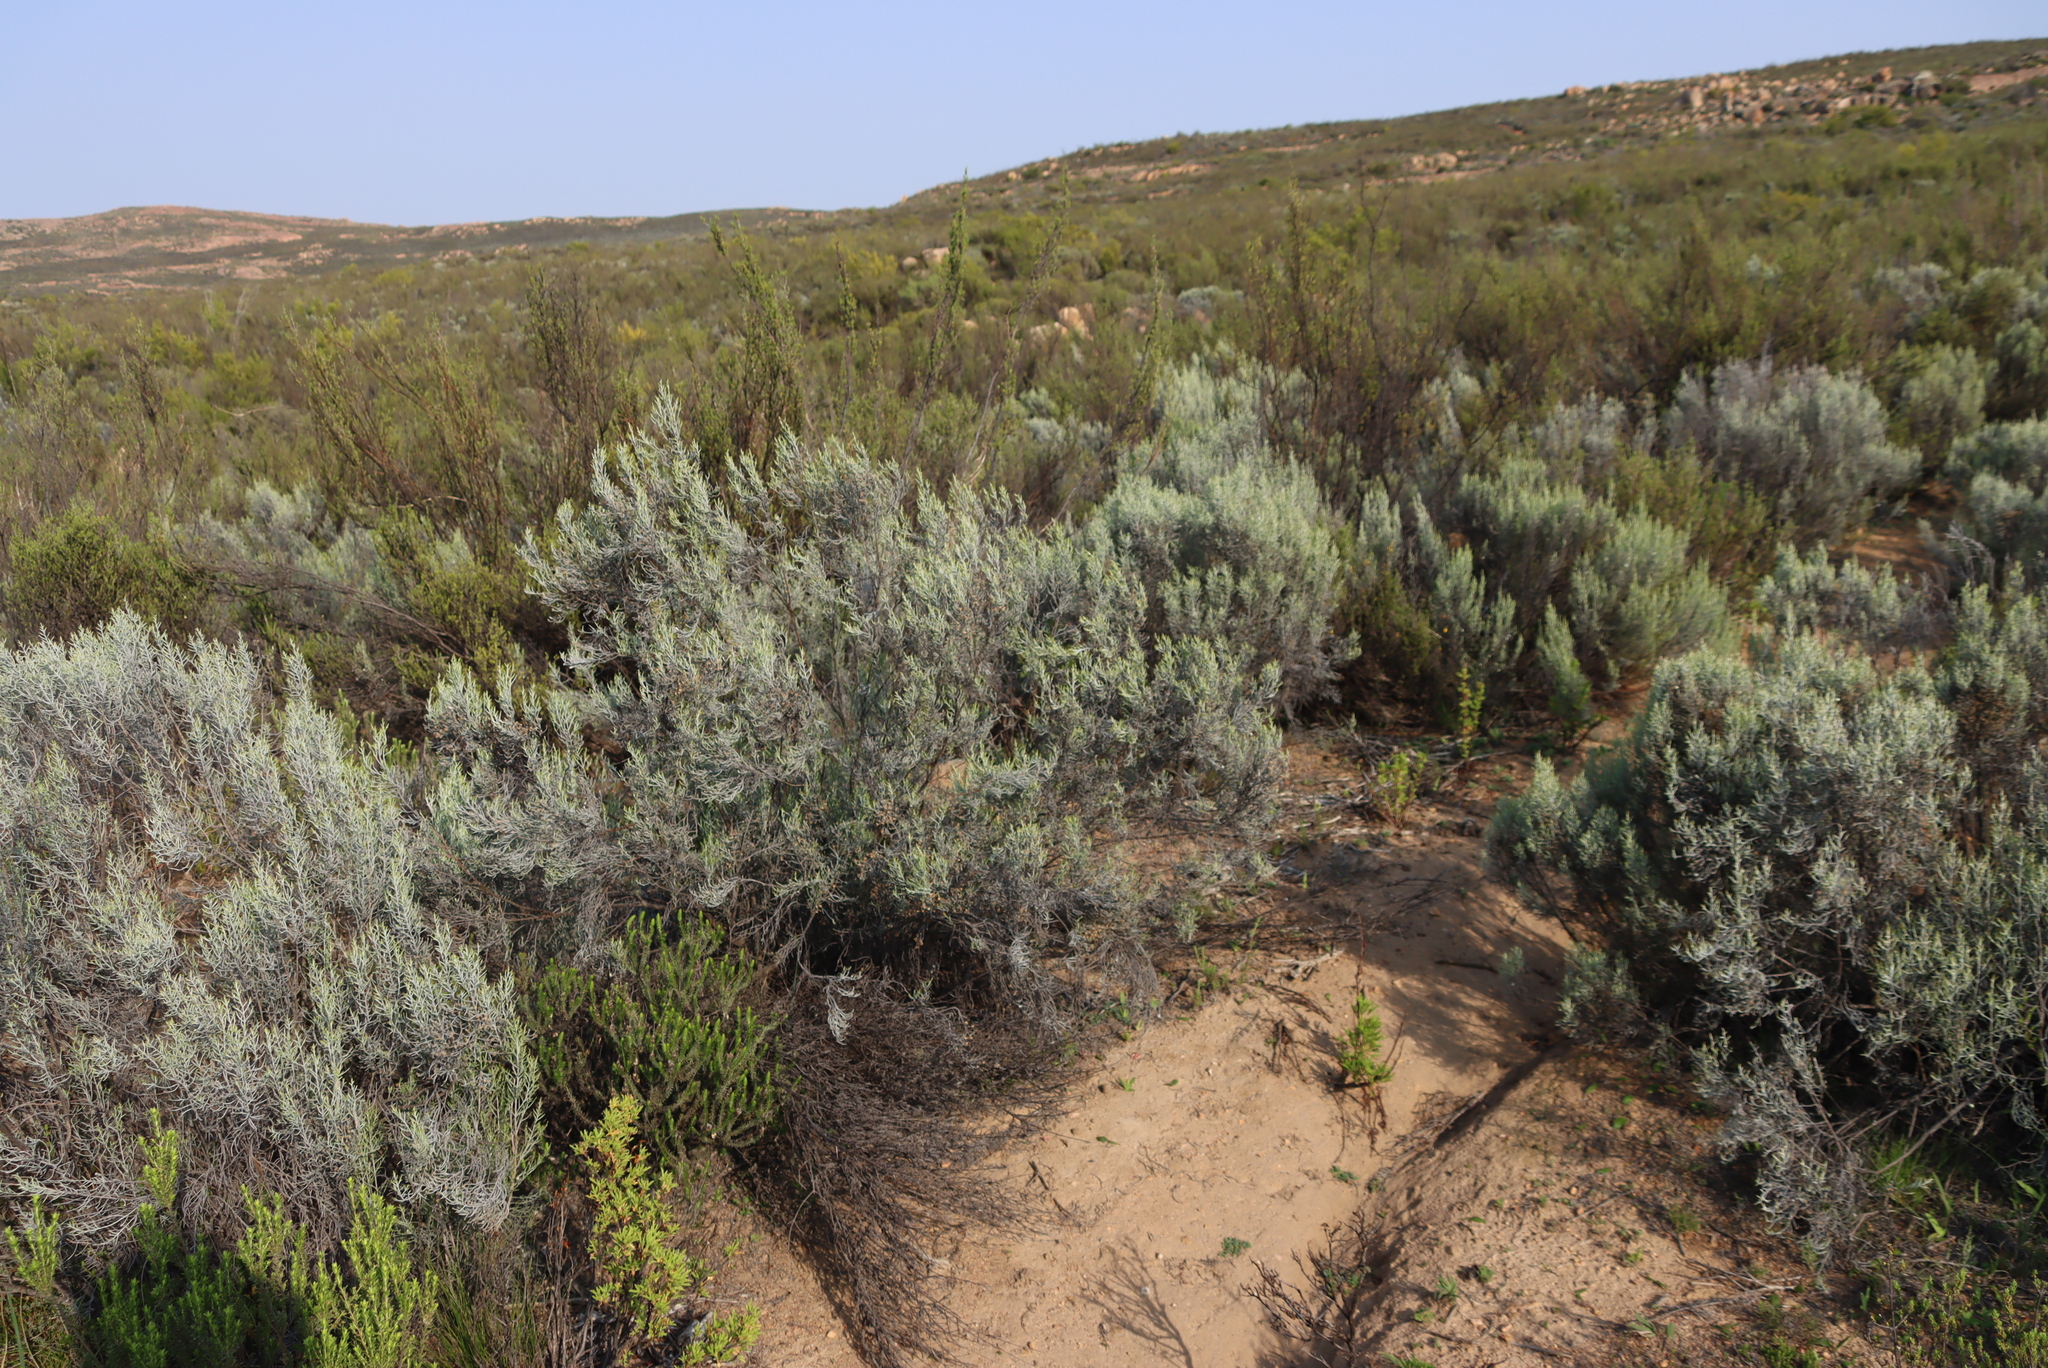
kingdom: Plantae
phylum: Tracheophyta
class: Magnoliopsida
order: Asterales
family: Asteraceae
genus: Dicerothamnus
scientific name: Dicerothamnus rhinocerotis
